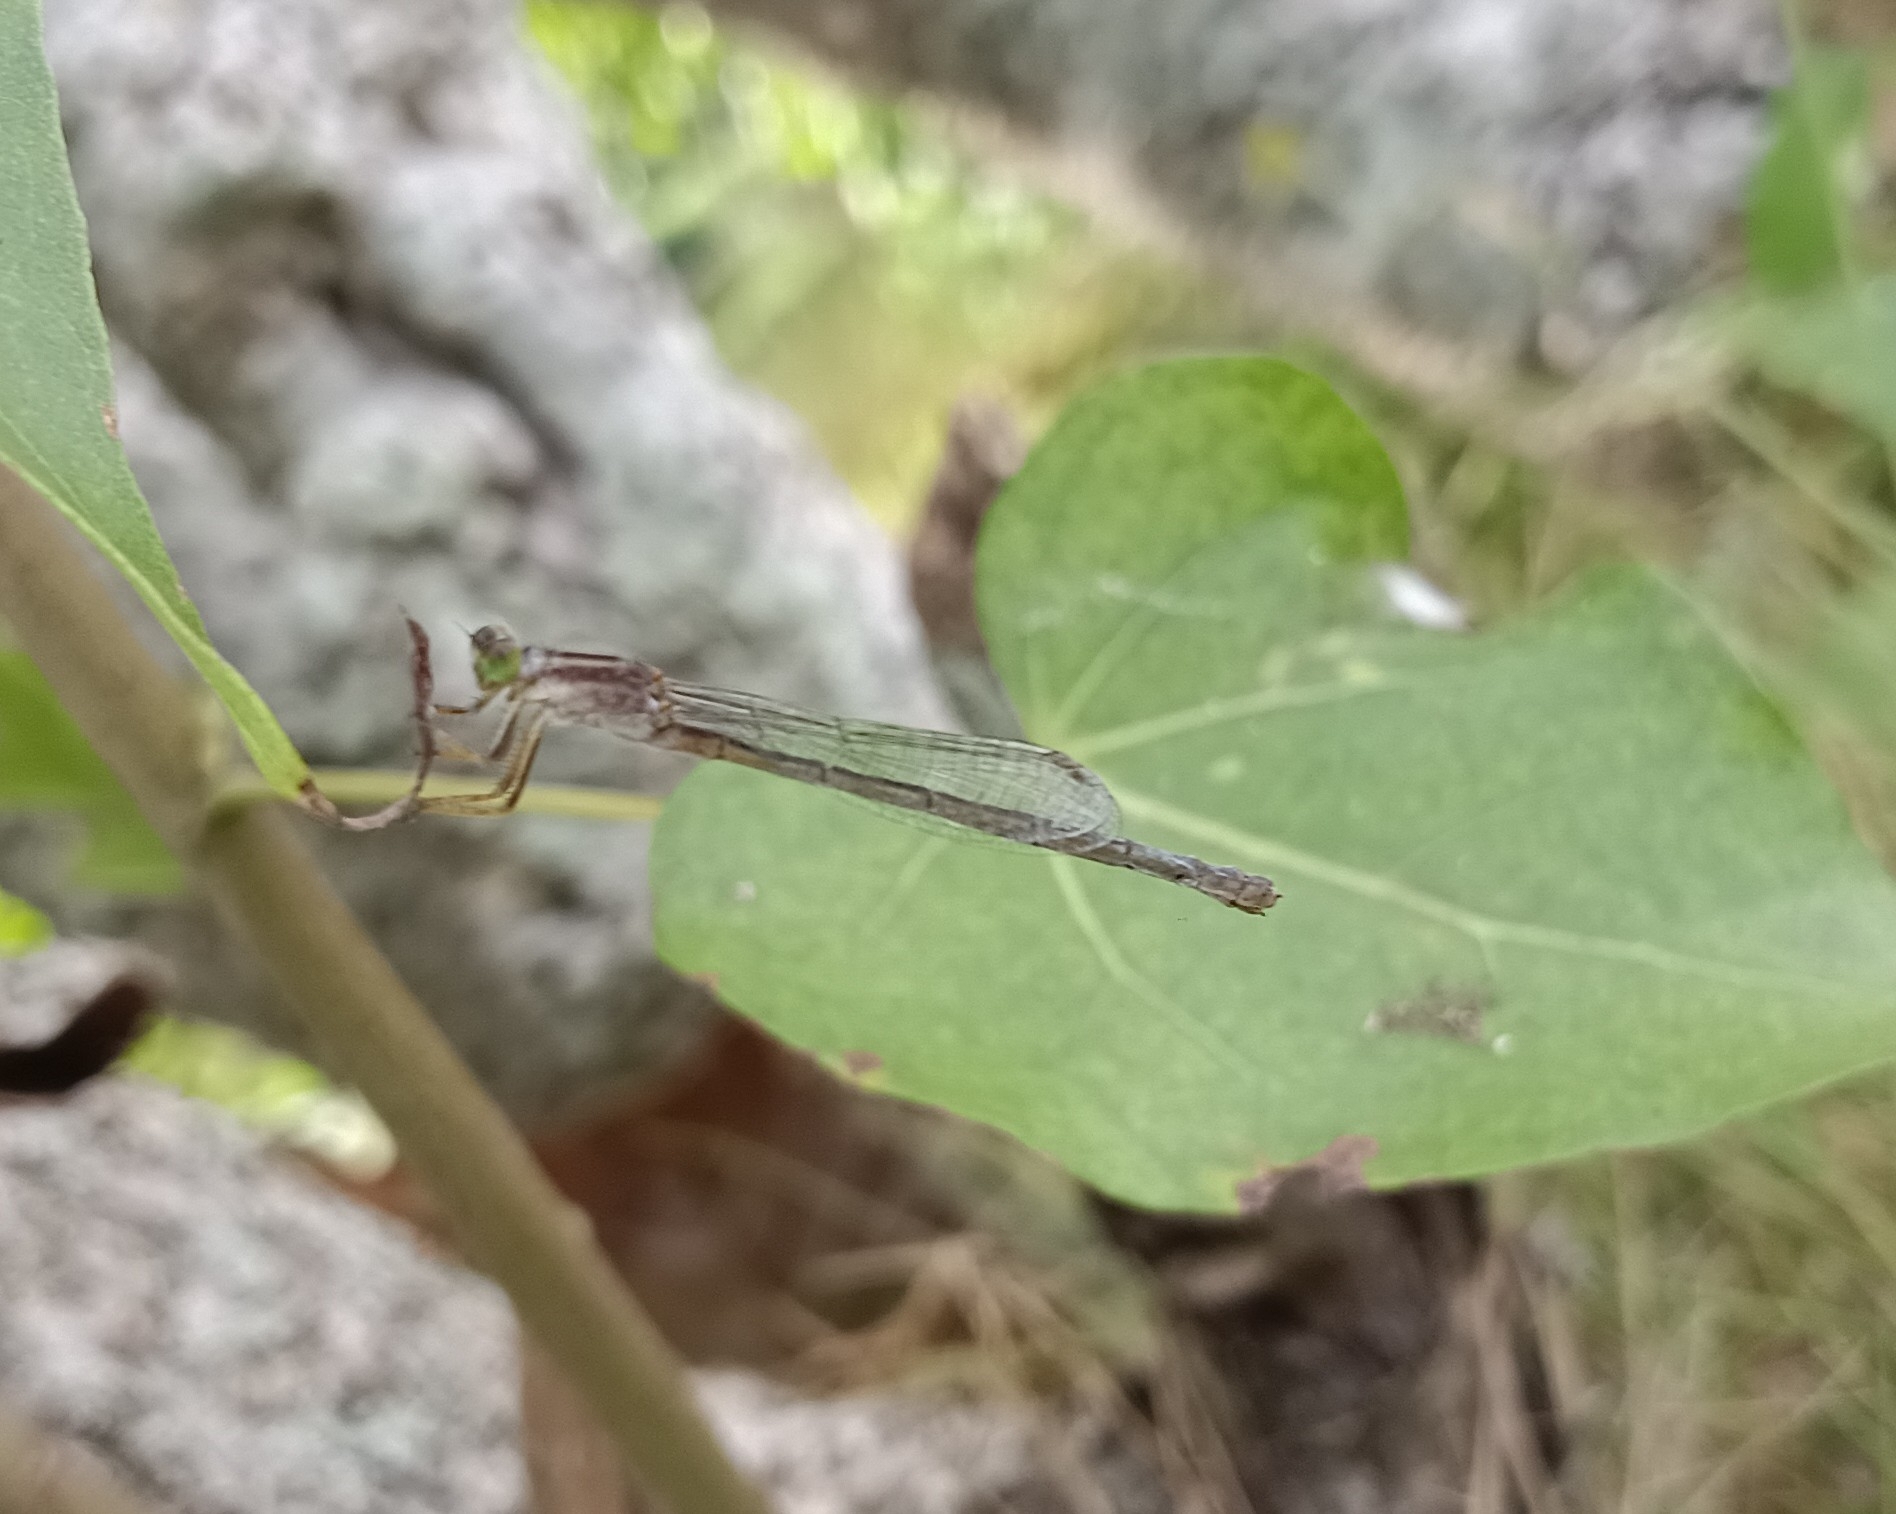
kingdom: Animalia
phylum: Arthropoda
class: Insecta
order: Odonata
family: Coenagrionidae
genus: Ischnura
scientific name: Ischnura senegalensis
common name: Tropical bluetail
